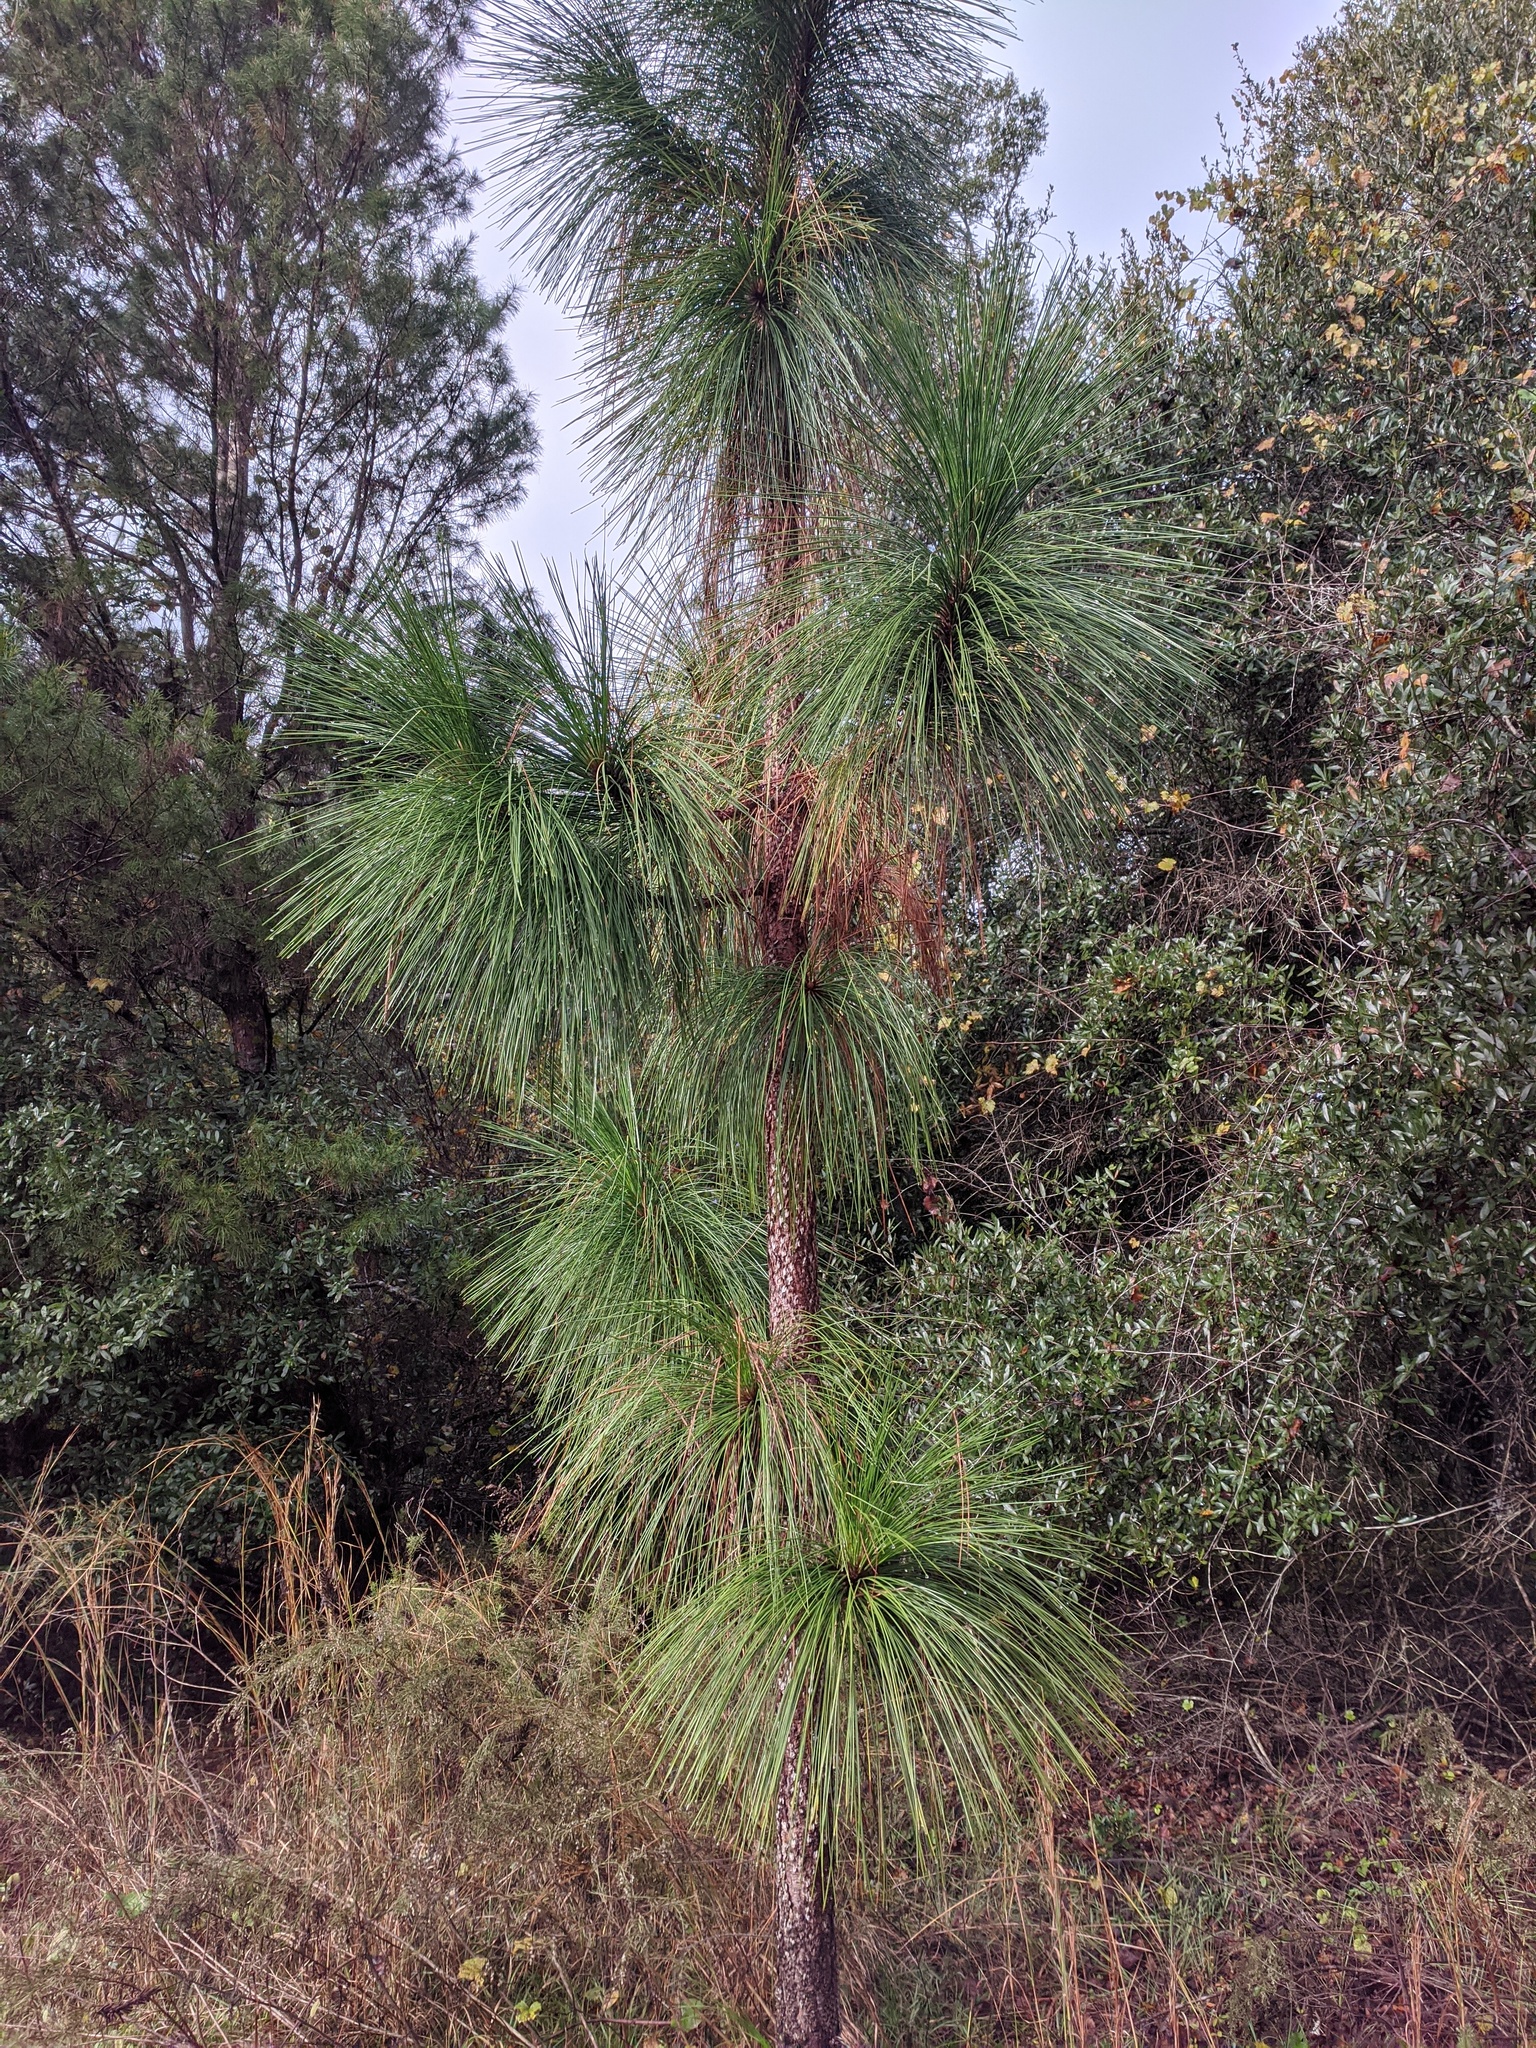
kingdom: Plantae
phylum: Tracheophyta
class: Pinopsida
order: Pinales
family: Pinaceae
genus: Pinus
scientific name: Pinus palustris
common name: Longleaf pine
